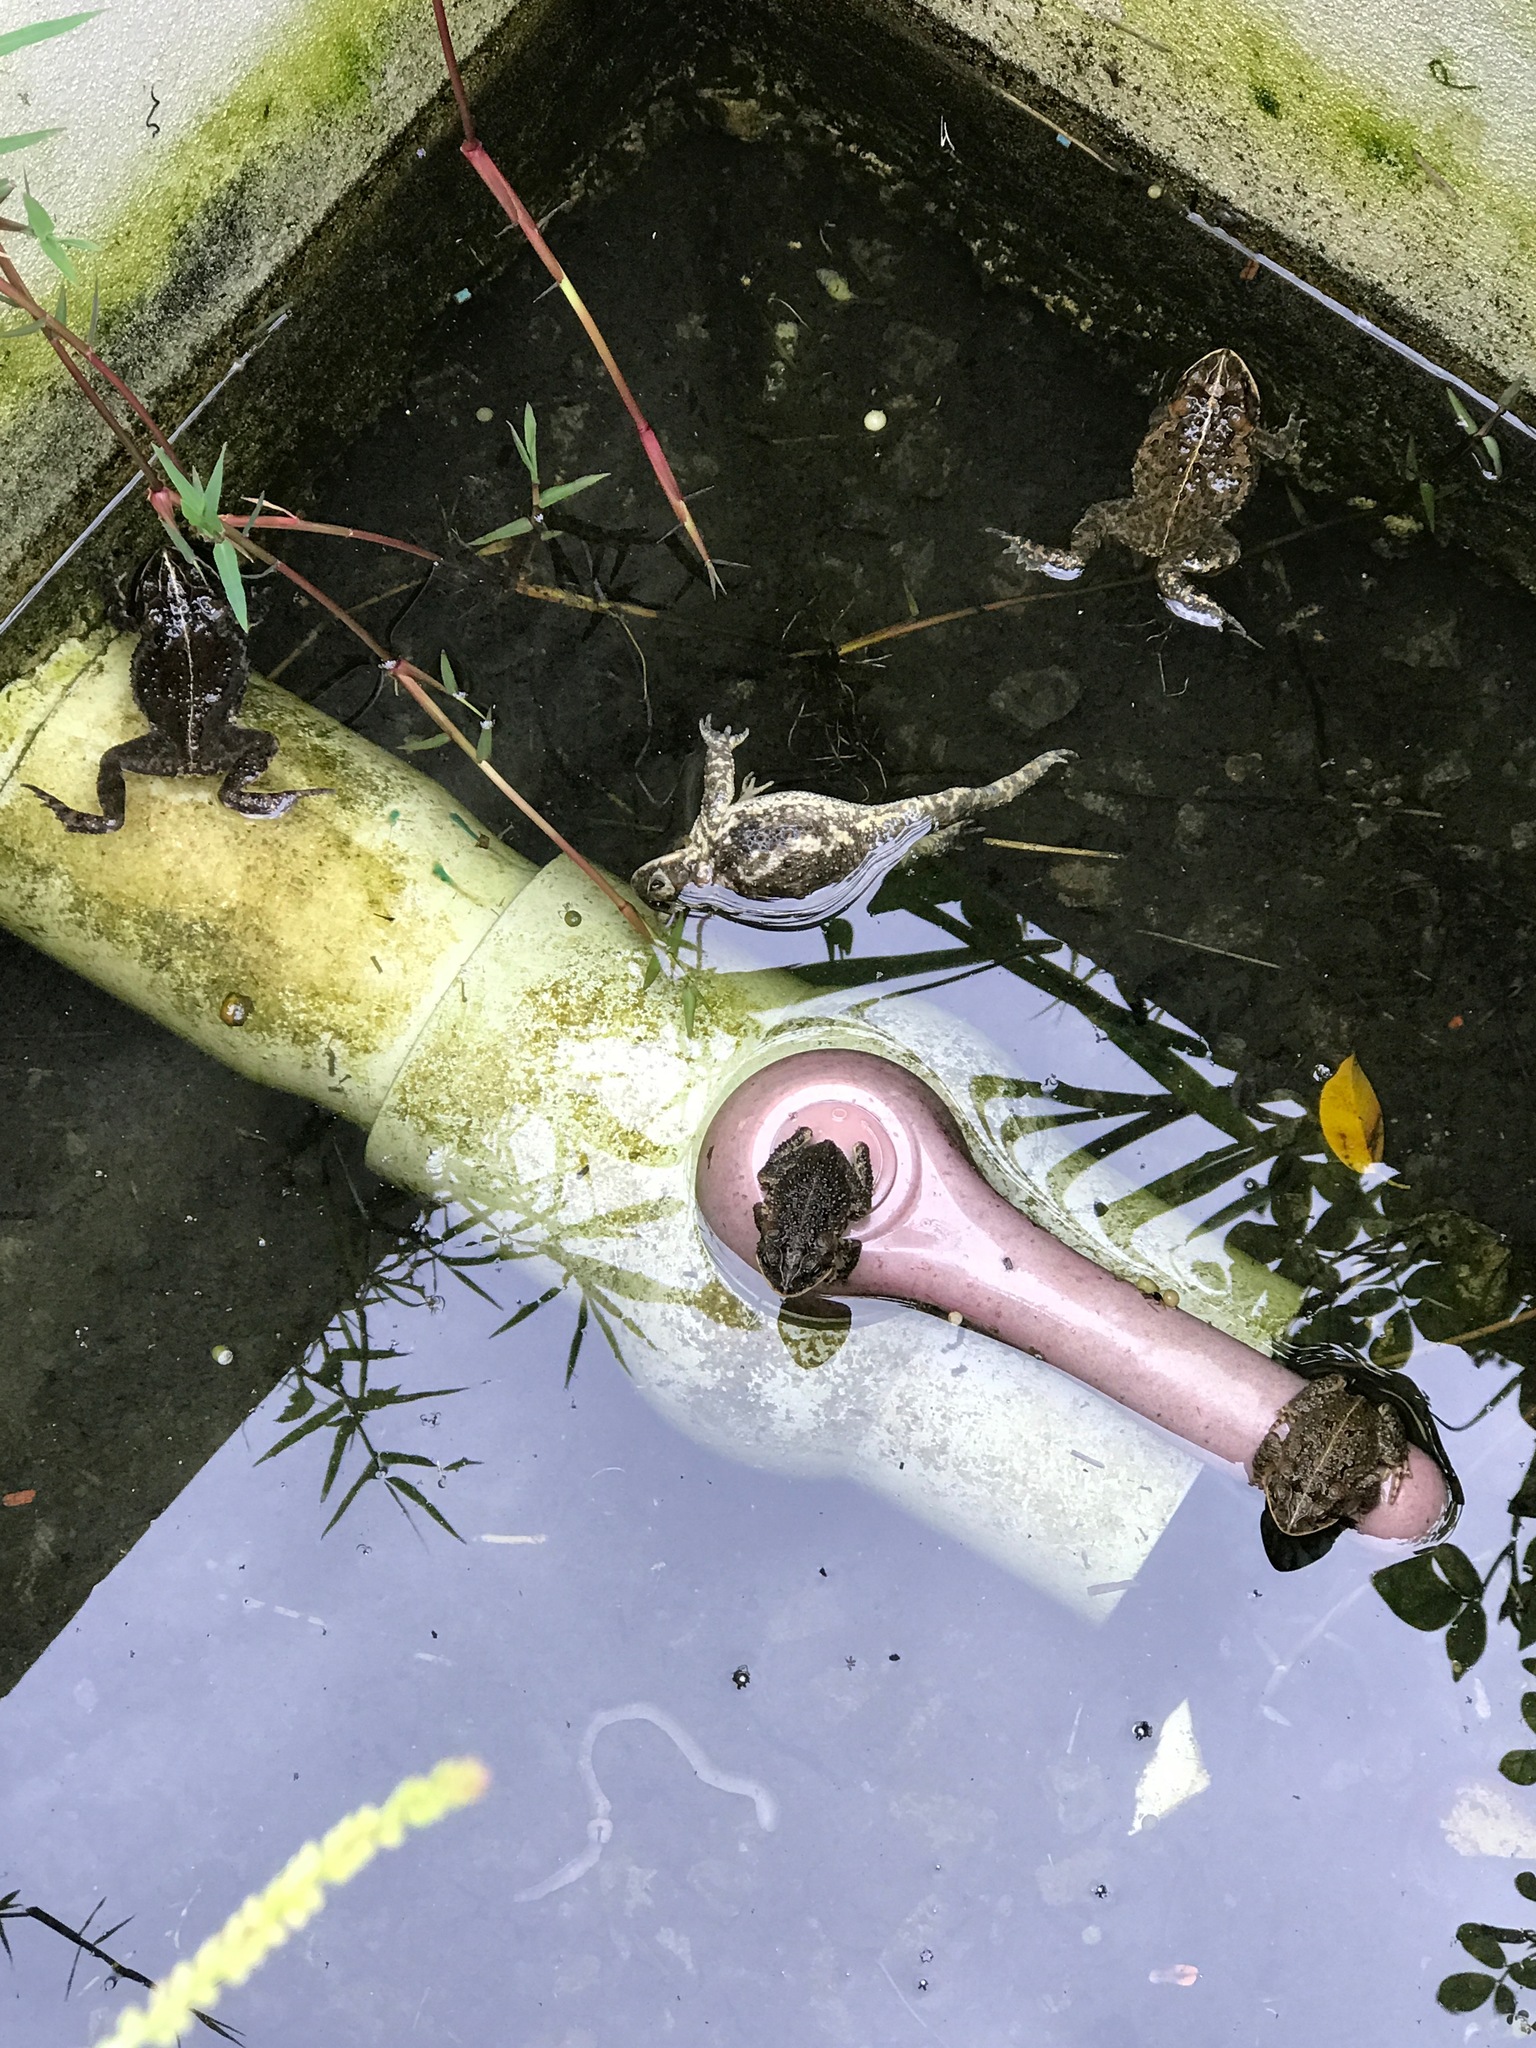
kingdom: Animalia
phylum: Chordata
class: Amphibia
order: Anura
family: Bufonidae
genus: Incilius
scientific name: Incilius coccifer
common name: Southern round-gland toad
